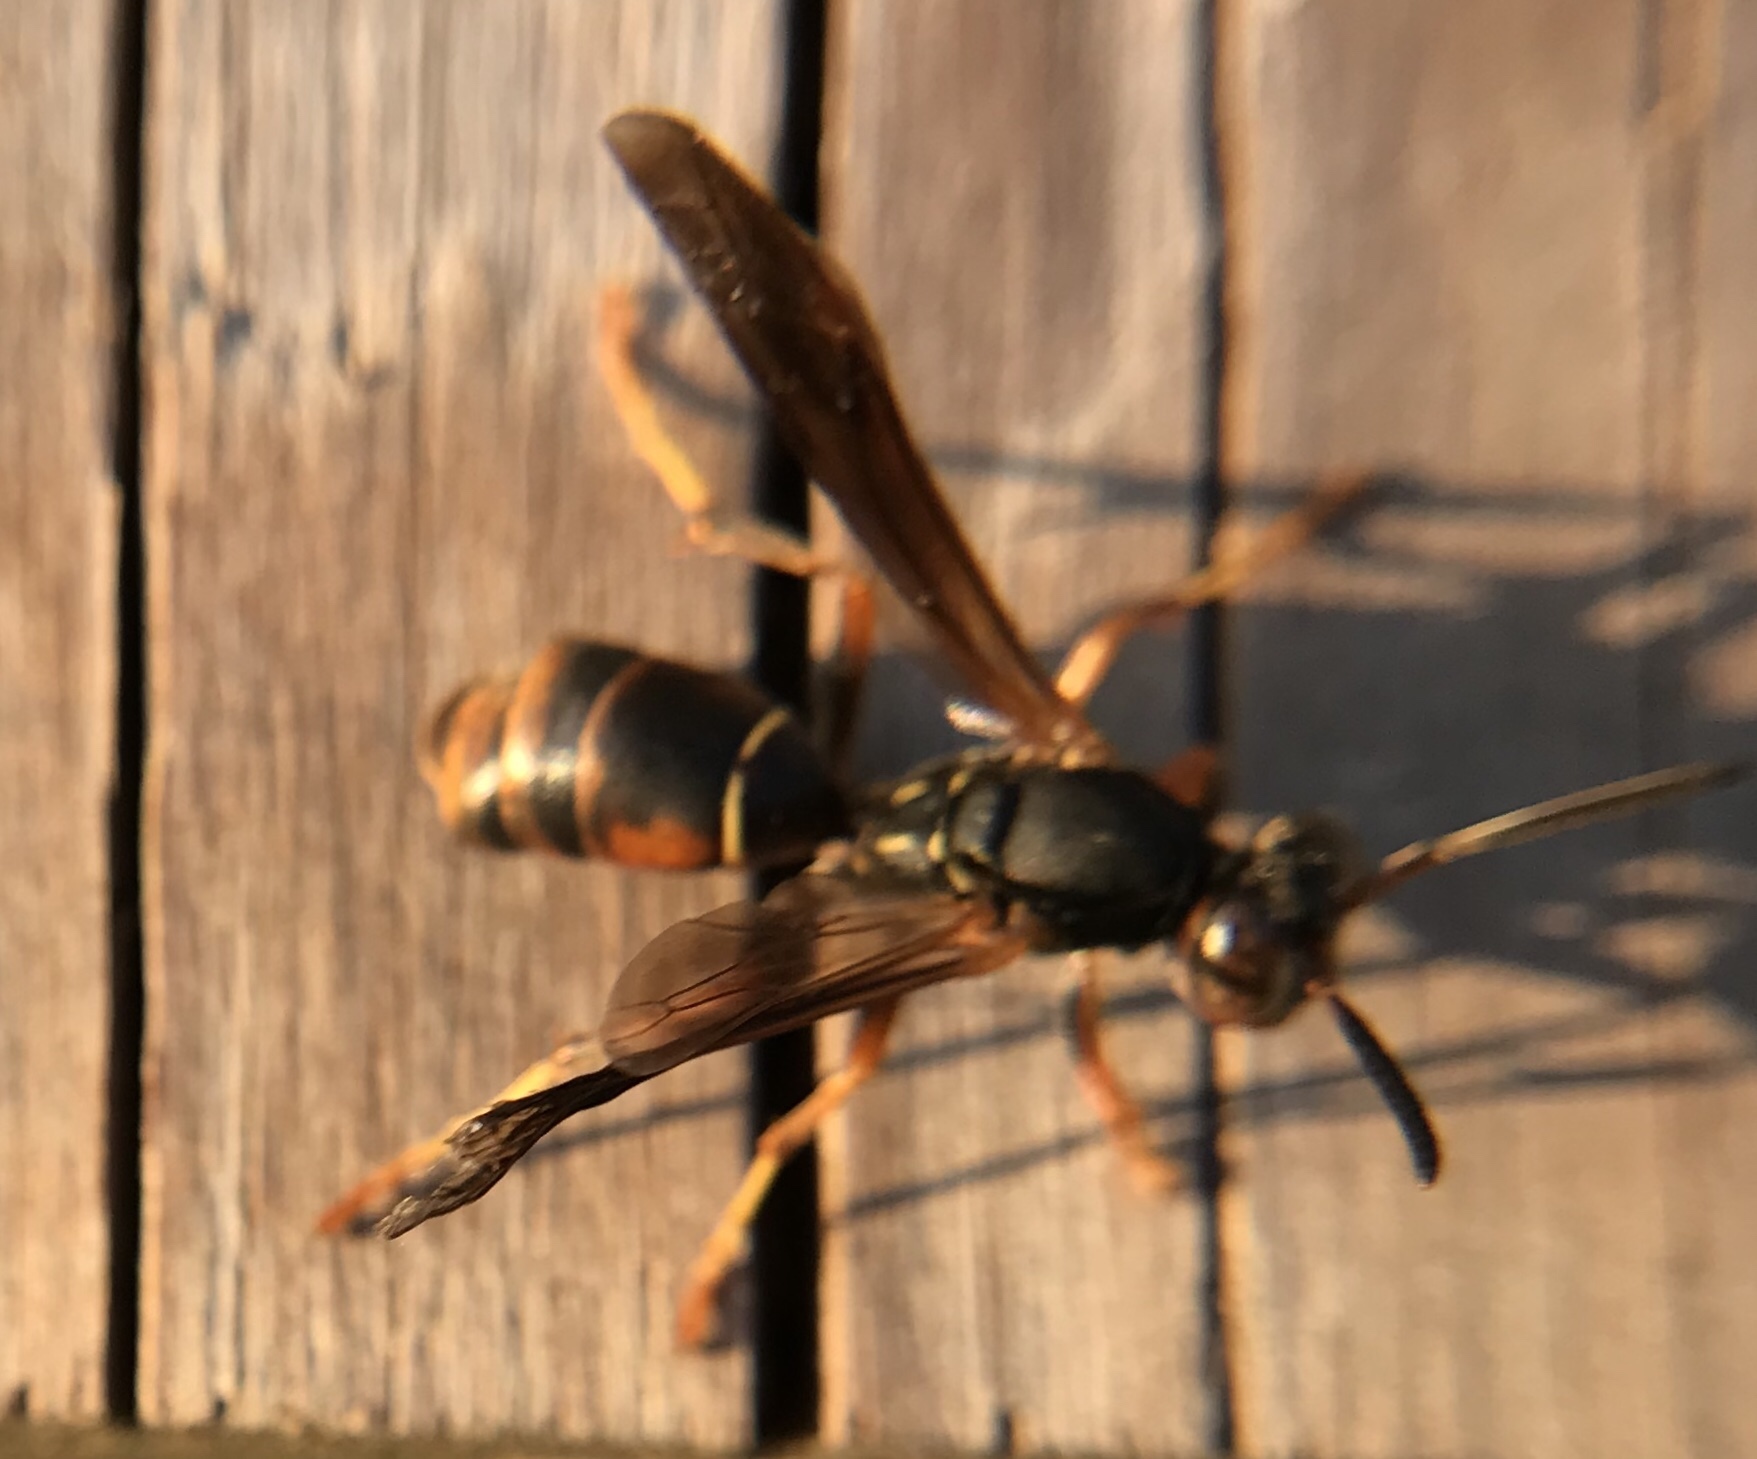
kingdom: Animalia
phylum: Arthropoda
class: Insecta
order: Hymenoptera
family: Eumenidae
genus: Polistes
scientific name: Polistes fuscatus
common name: Dark paper wasp
